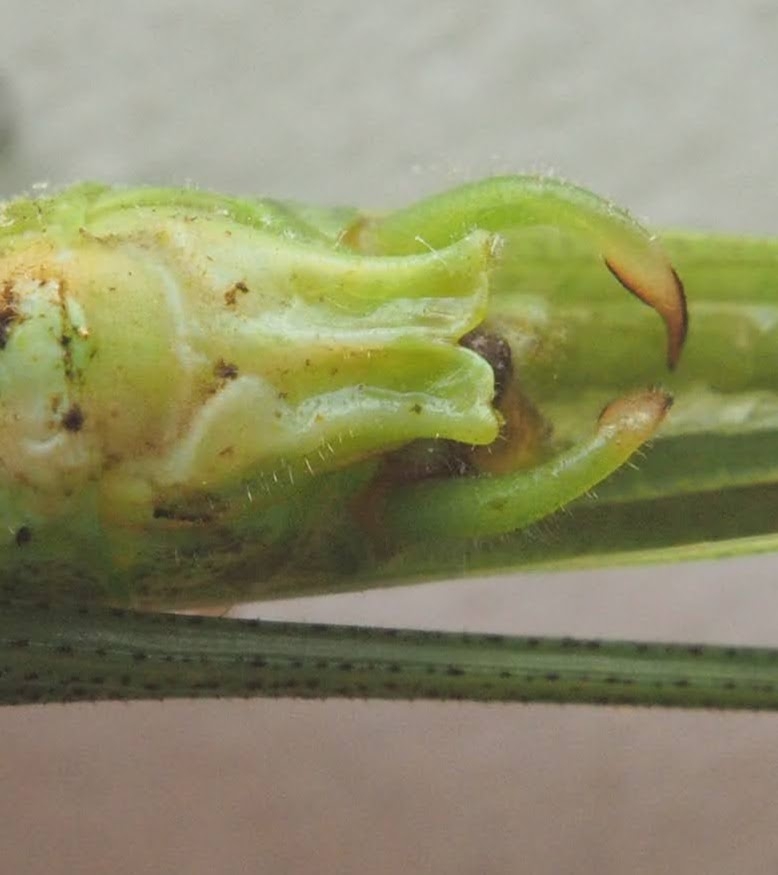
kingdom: Animalia
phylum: Arthropoda
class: Insecta
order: Orthoptera
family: Tettigoniidae
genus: Phaneroptera
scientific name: Phaneroptera falcata
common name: Sickle-bearing bush-cricket
